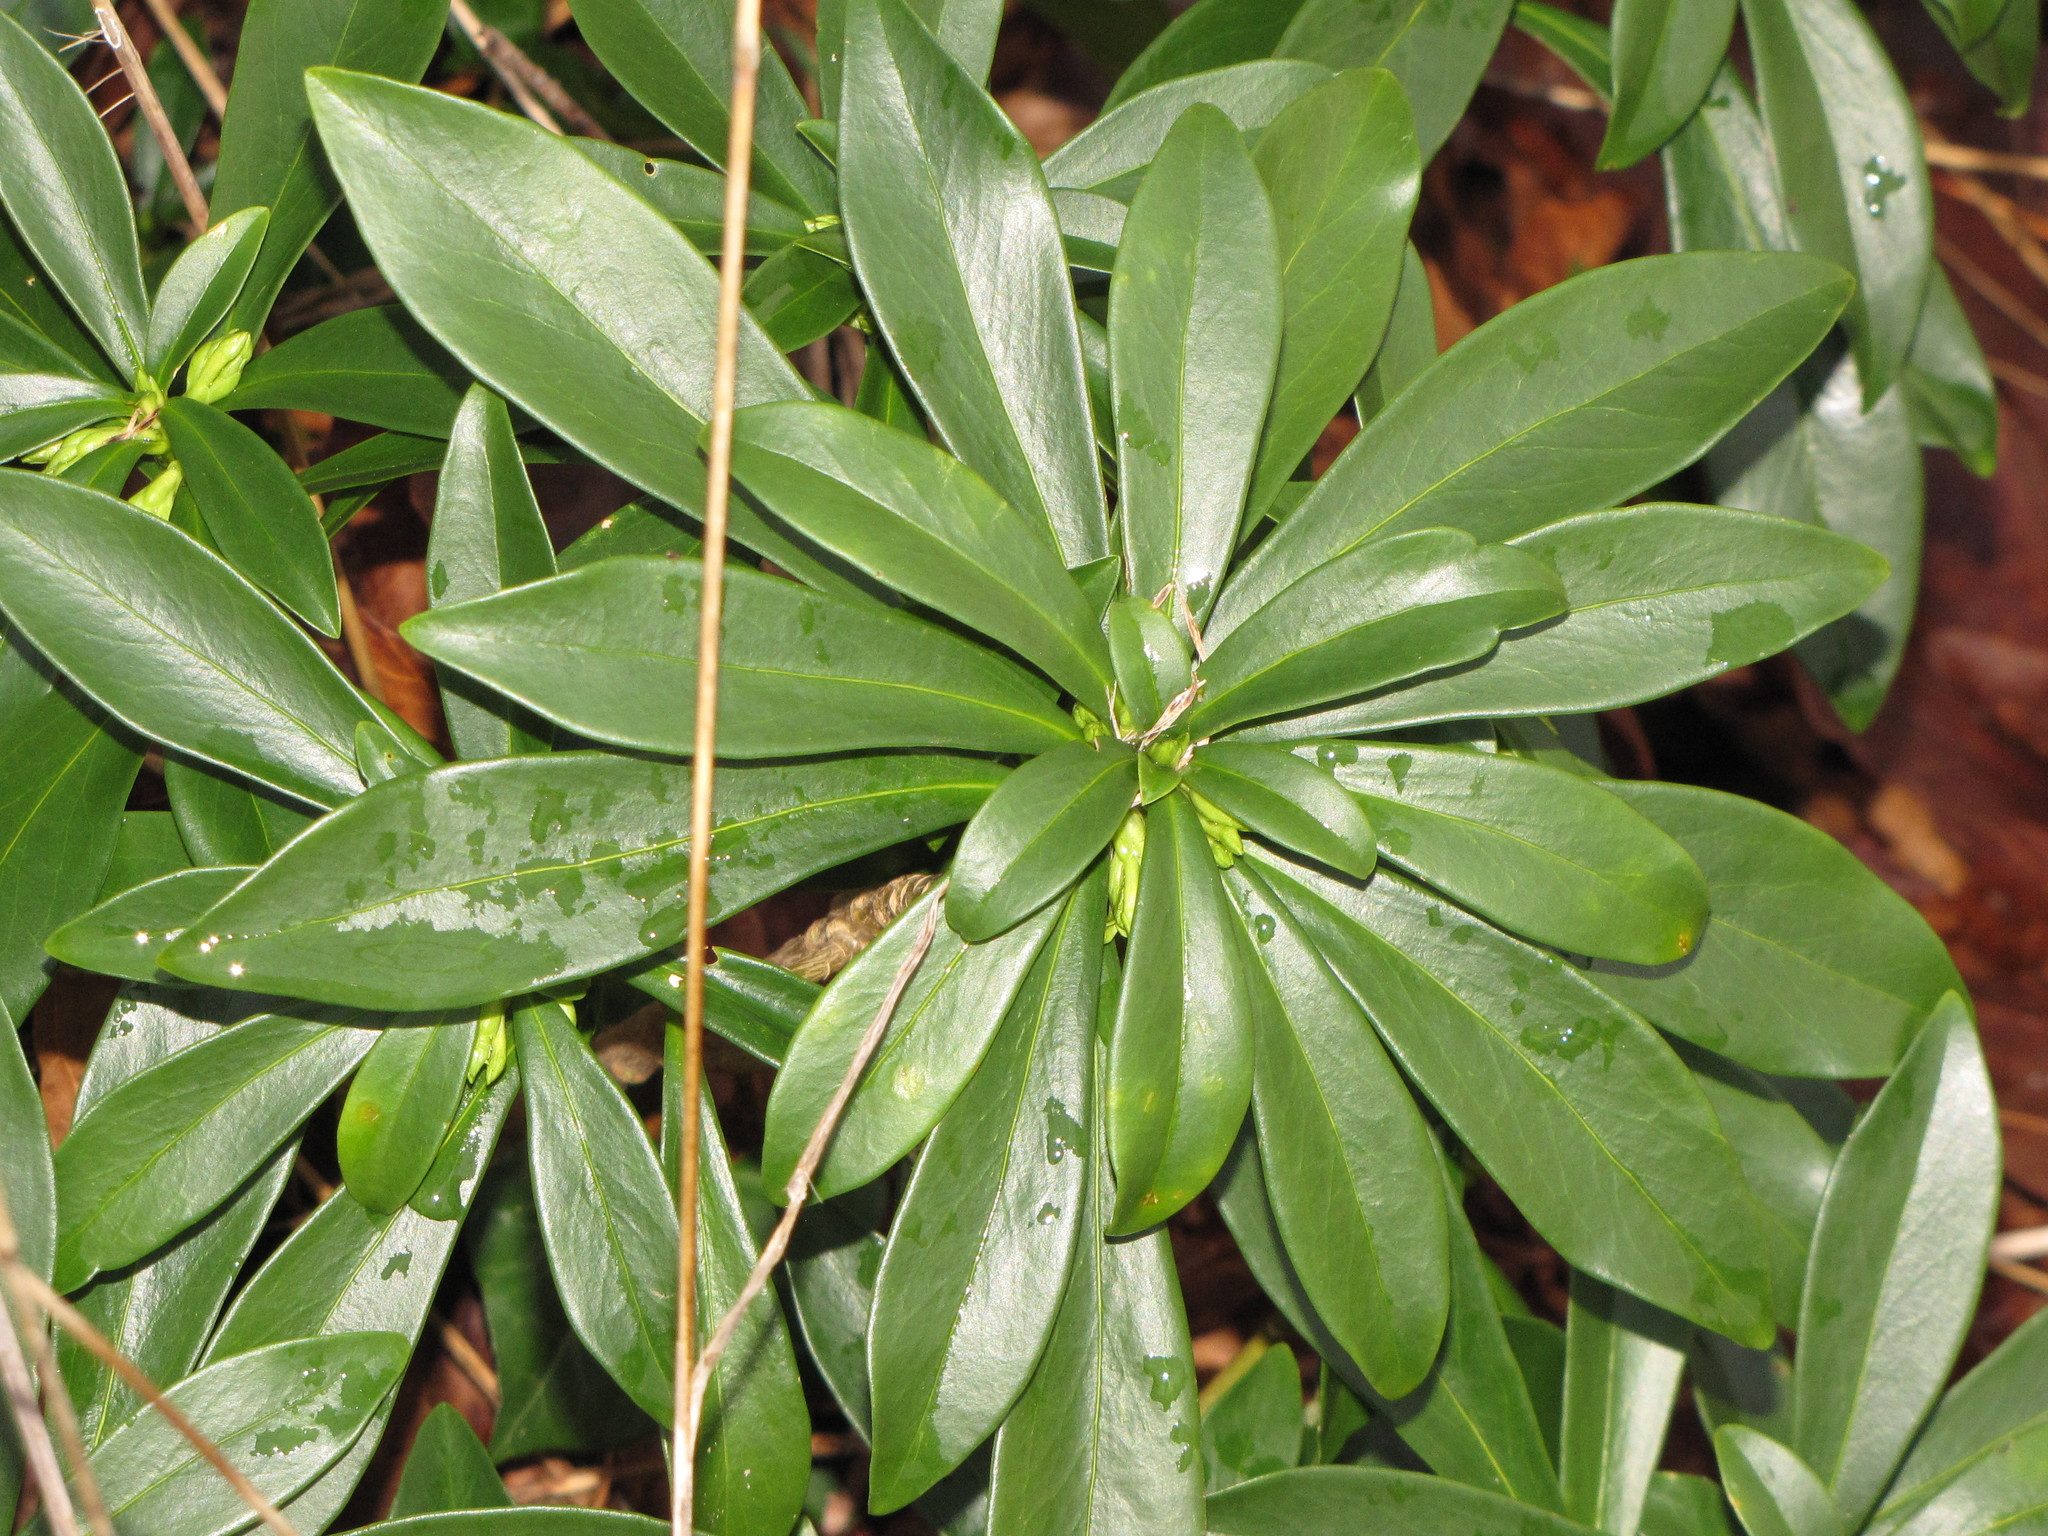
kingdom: Plantae
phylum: Tracheophyta
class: Magnoliopsida
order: Malvales
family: Thymelaeaceae
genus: Daphne
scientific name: Daphne laureola
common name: Spurge-laurel
